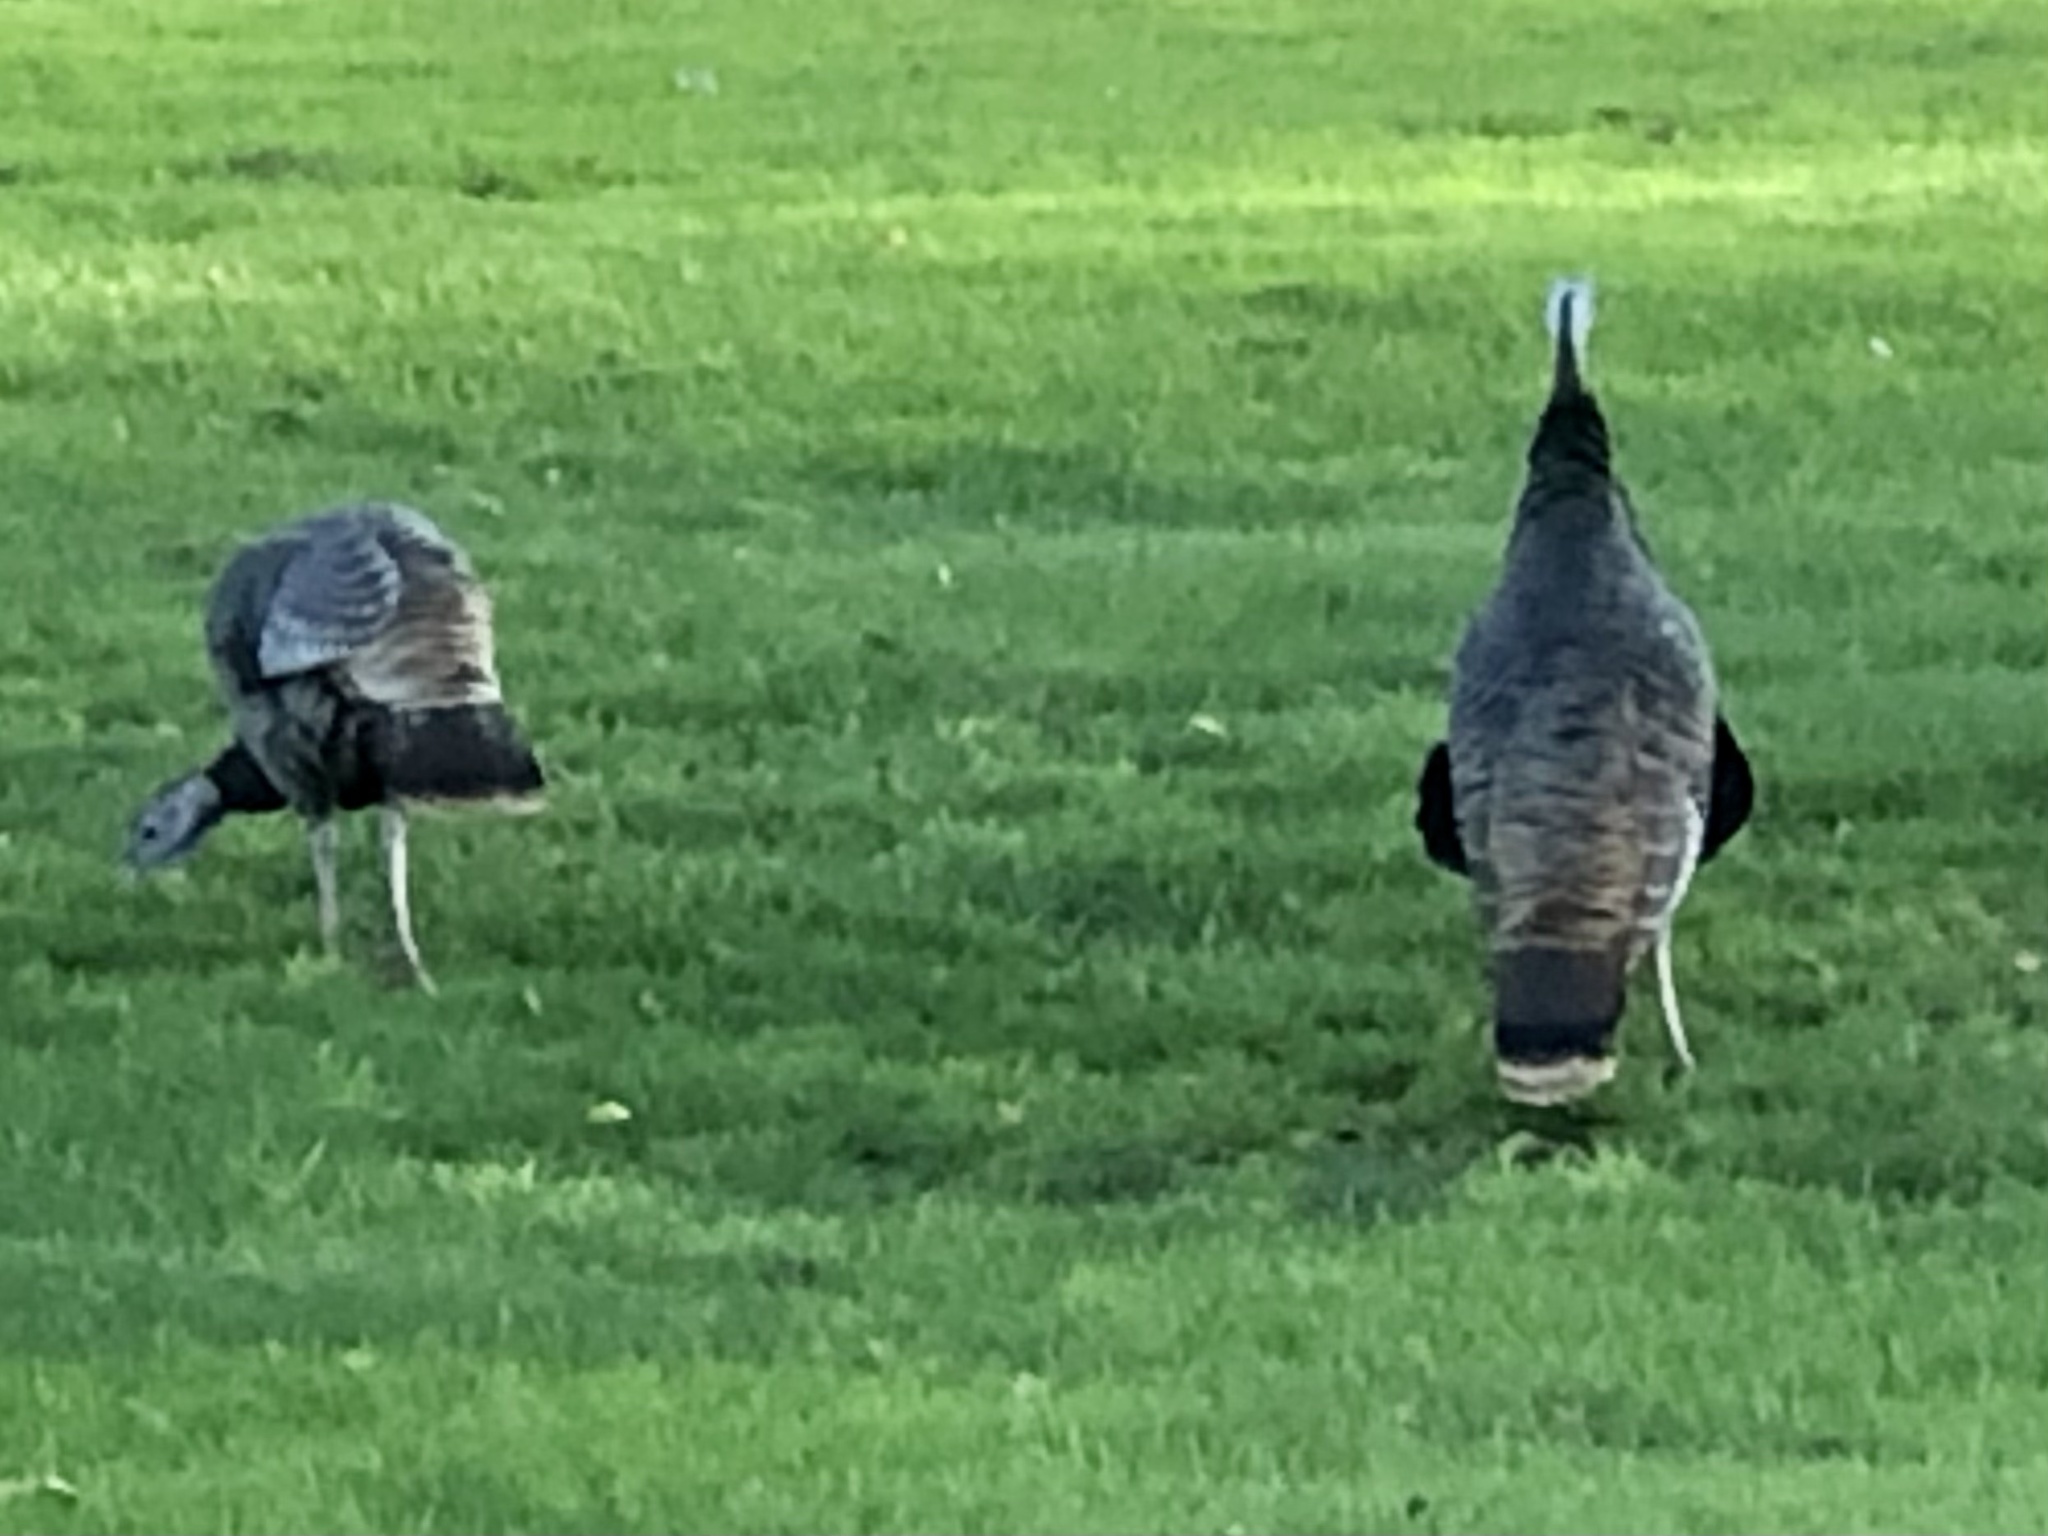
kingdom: Animalia
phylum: Chordata
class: Aves
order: Galliformes
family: Phasianidae
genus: Meleagris
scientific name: Meleagris gallopavo
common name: Wild turkey
